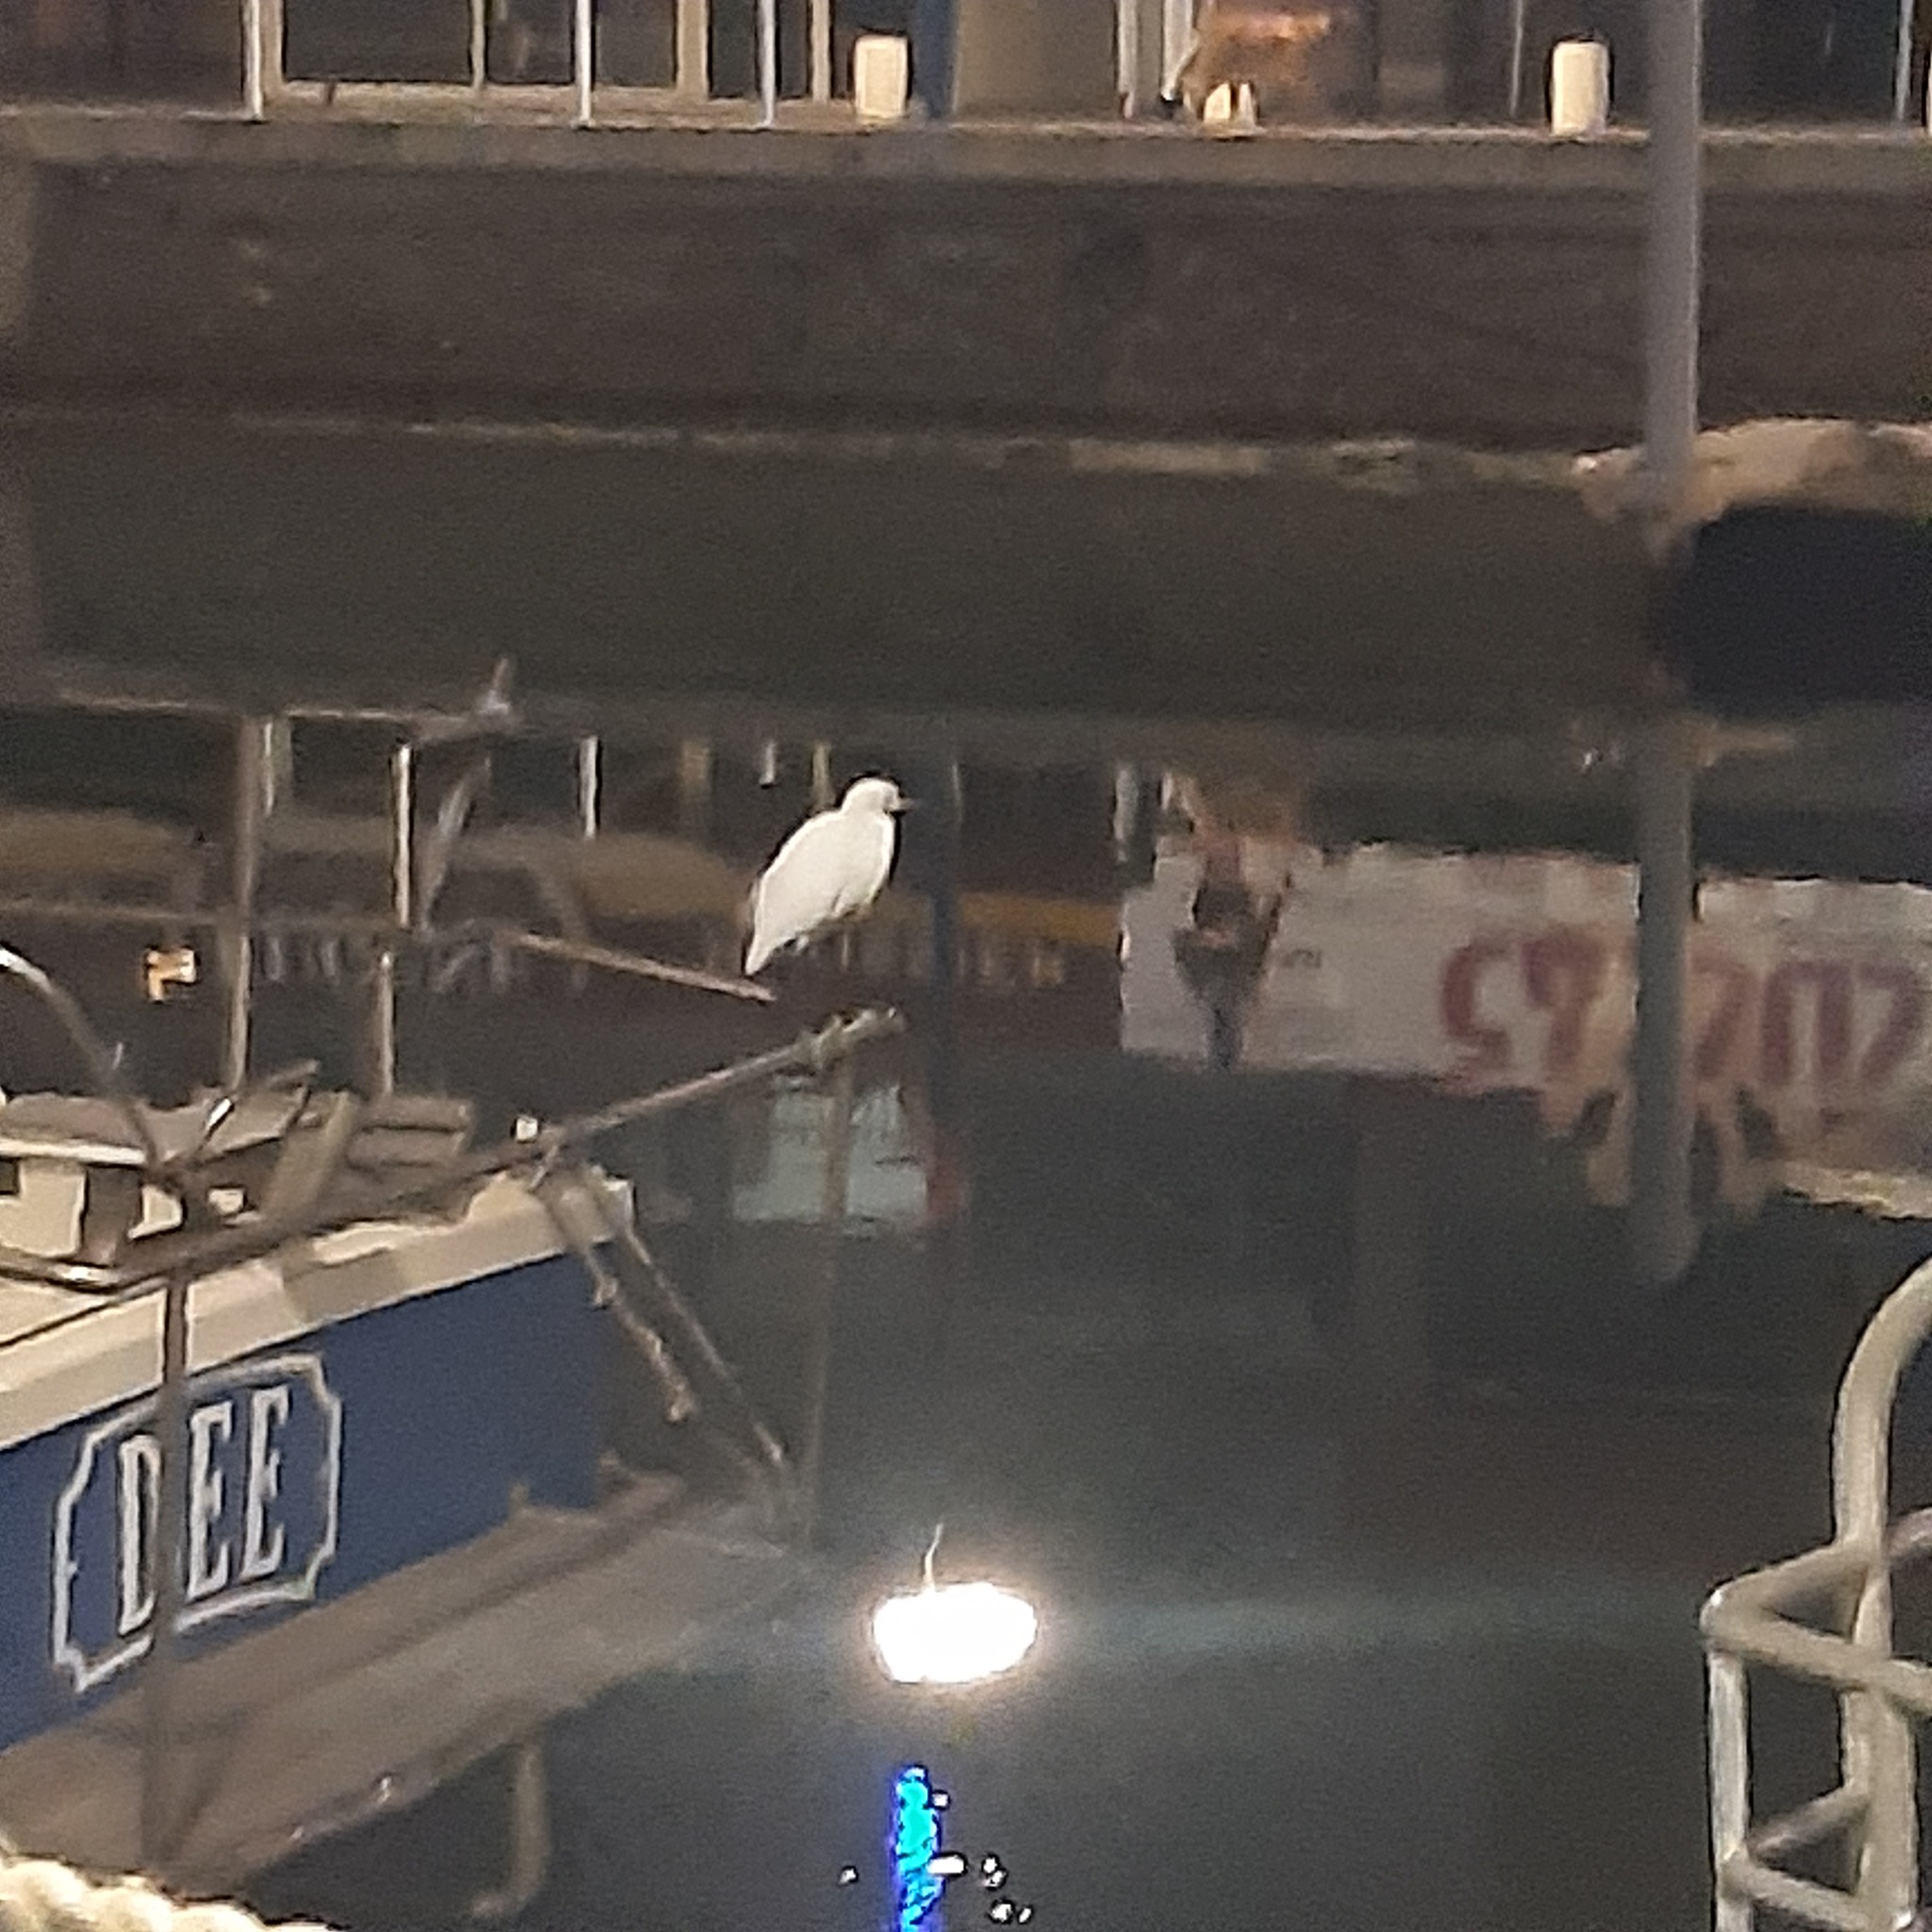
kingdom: Animalia
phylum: Chordata
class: Aves
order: Pelecaniformes
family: Ardeidae
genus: Egretta
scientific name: Egretta garzetta
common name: Little egret
